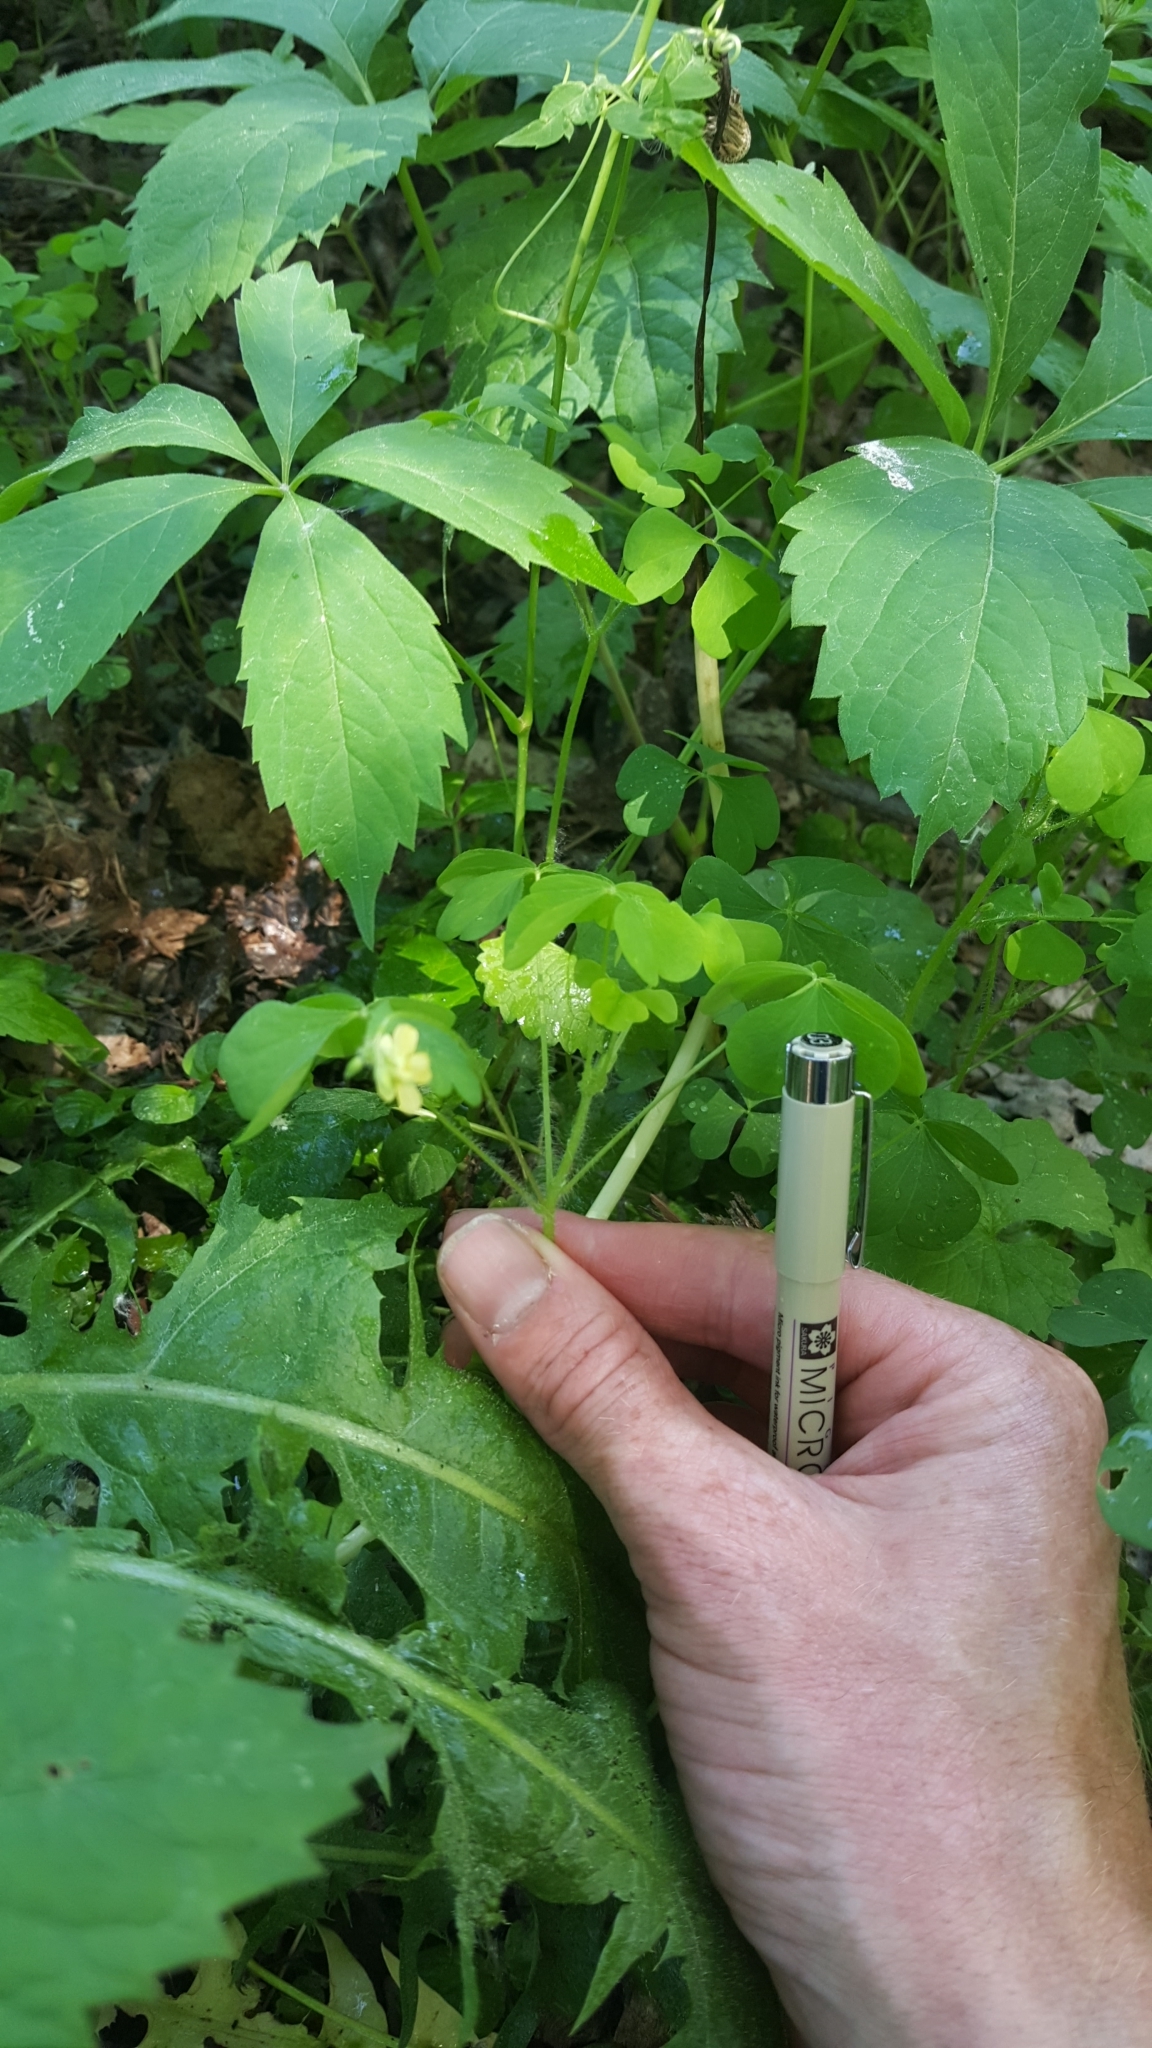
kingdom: Plantae
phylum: Tracheophyta
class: Magnoliopsida
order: Oxalidales
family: Oxalidaceae
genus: Oxalis
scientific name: Oxalis stricta
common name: Upright yellow-sorrel
